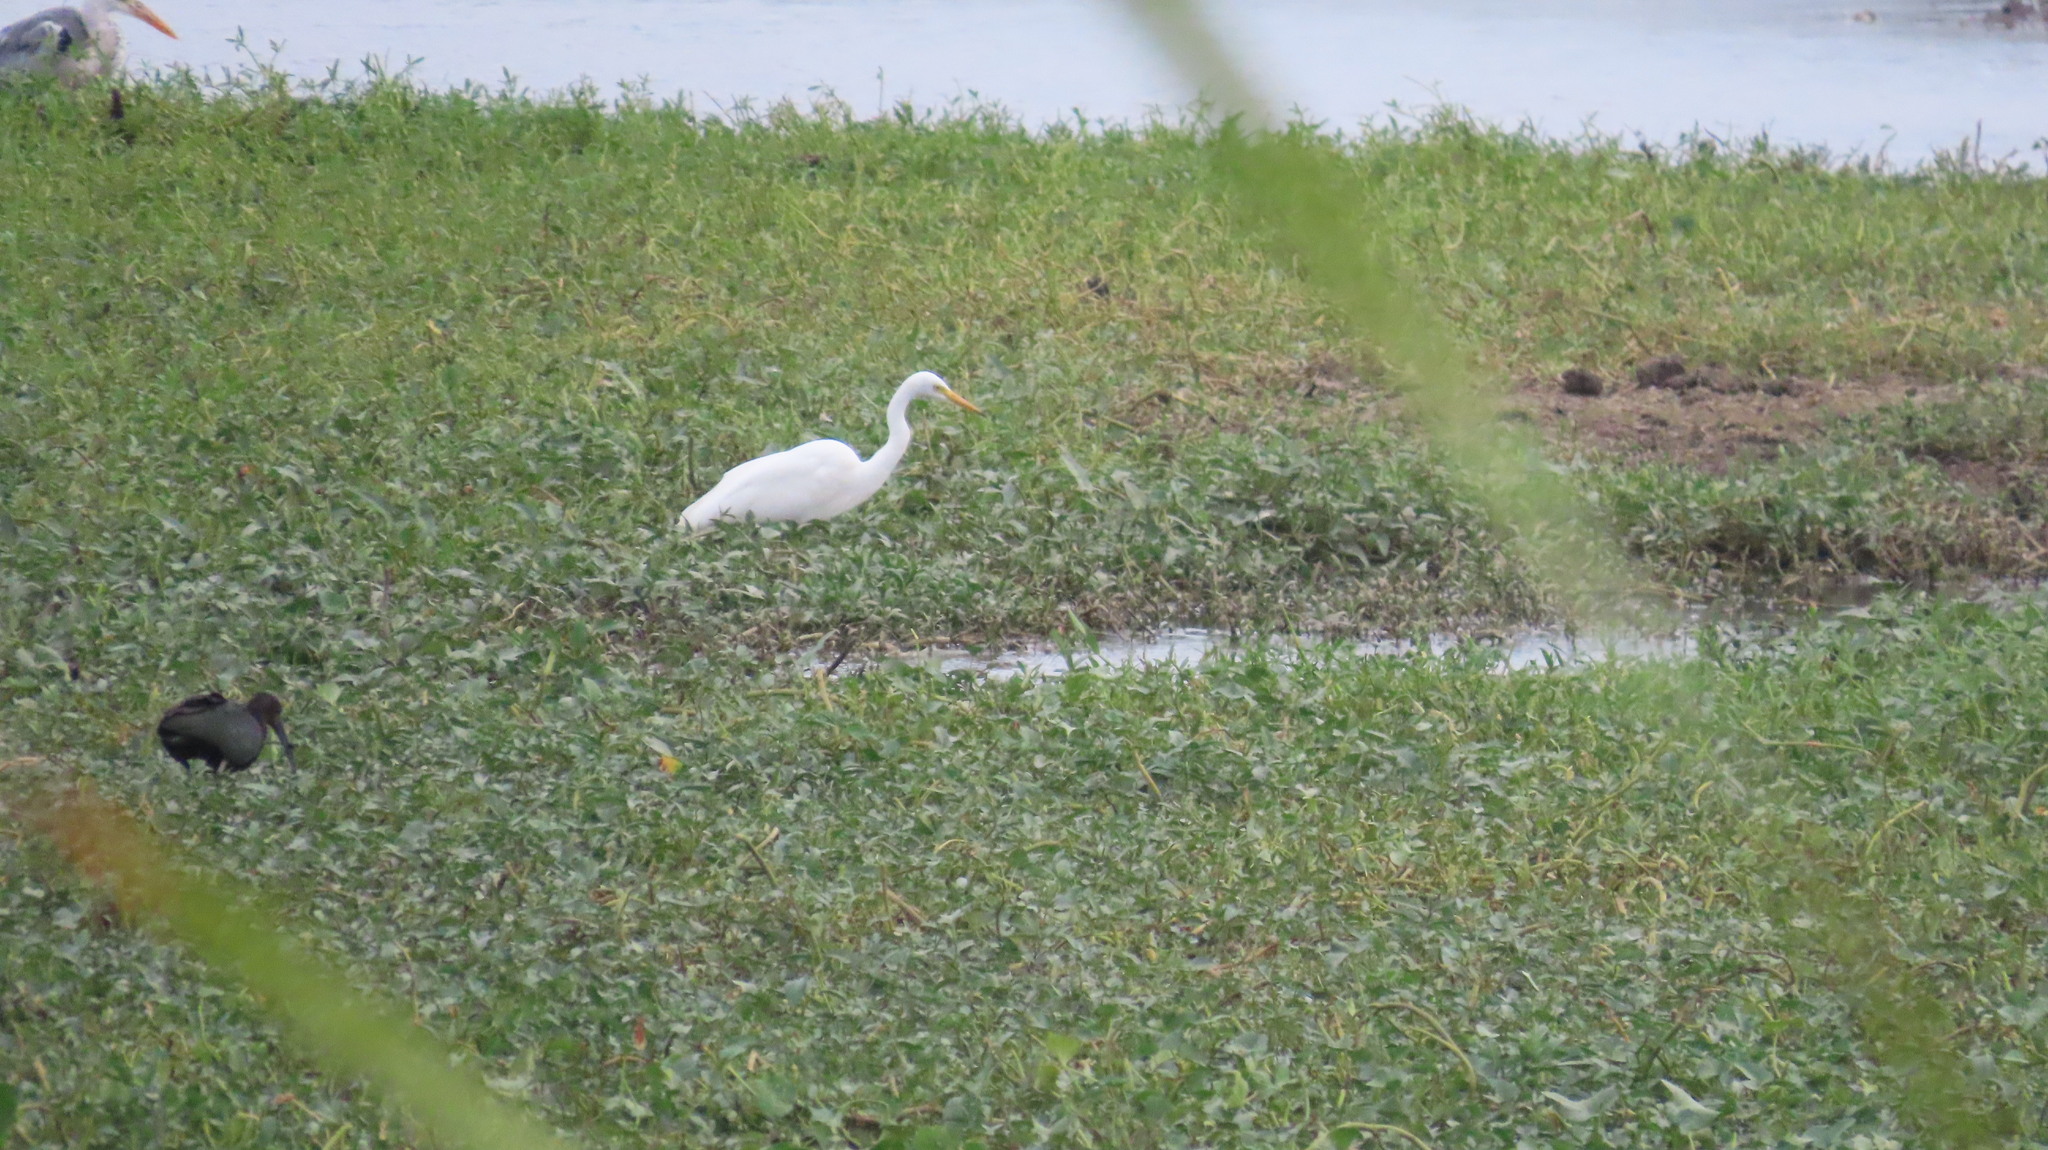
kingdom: Animalia
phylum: Chordata
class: Aves
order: Pelecaniformes
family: Threskiornithidae
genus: Plegadis
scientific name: Plegadis falcinellus
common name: Glossy ibis
